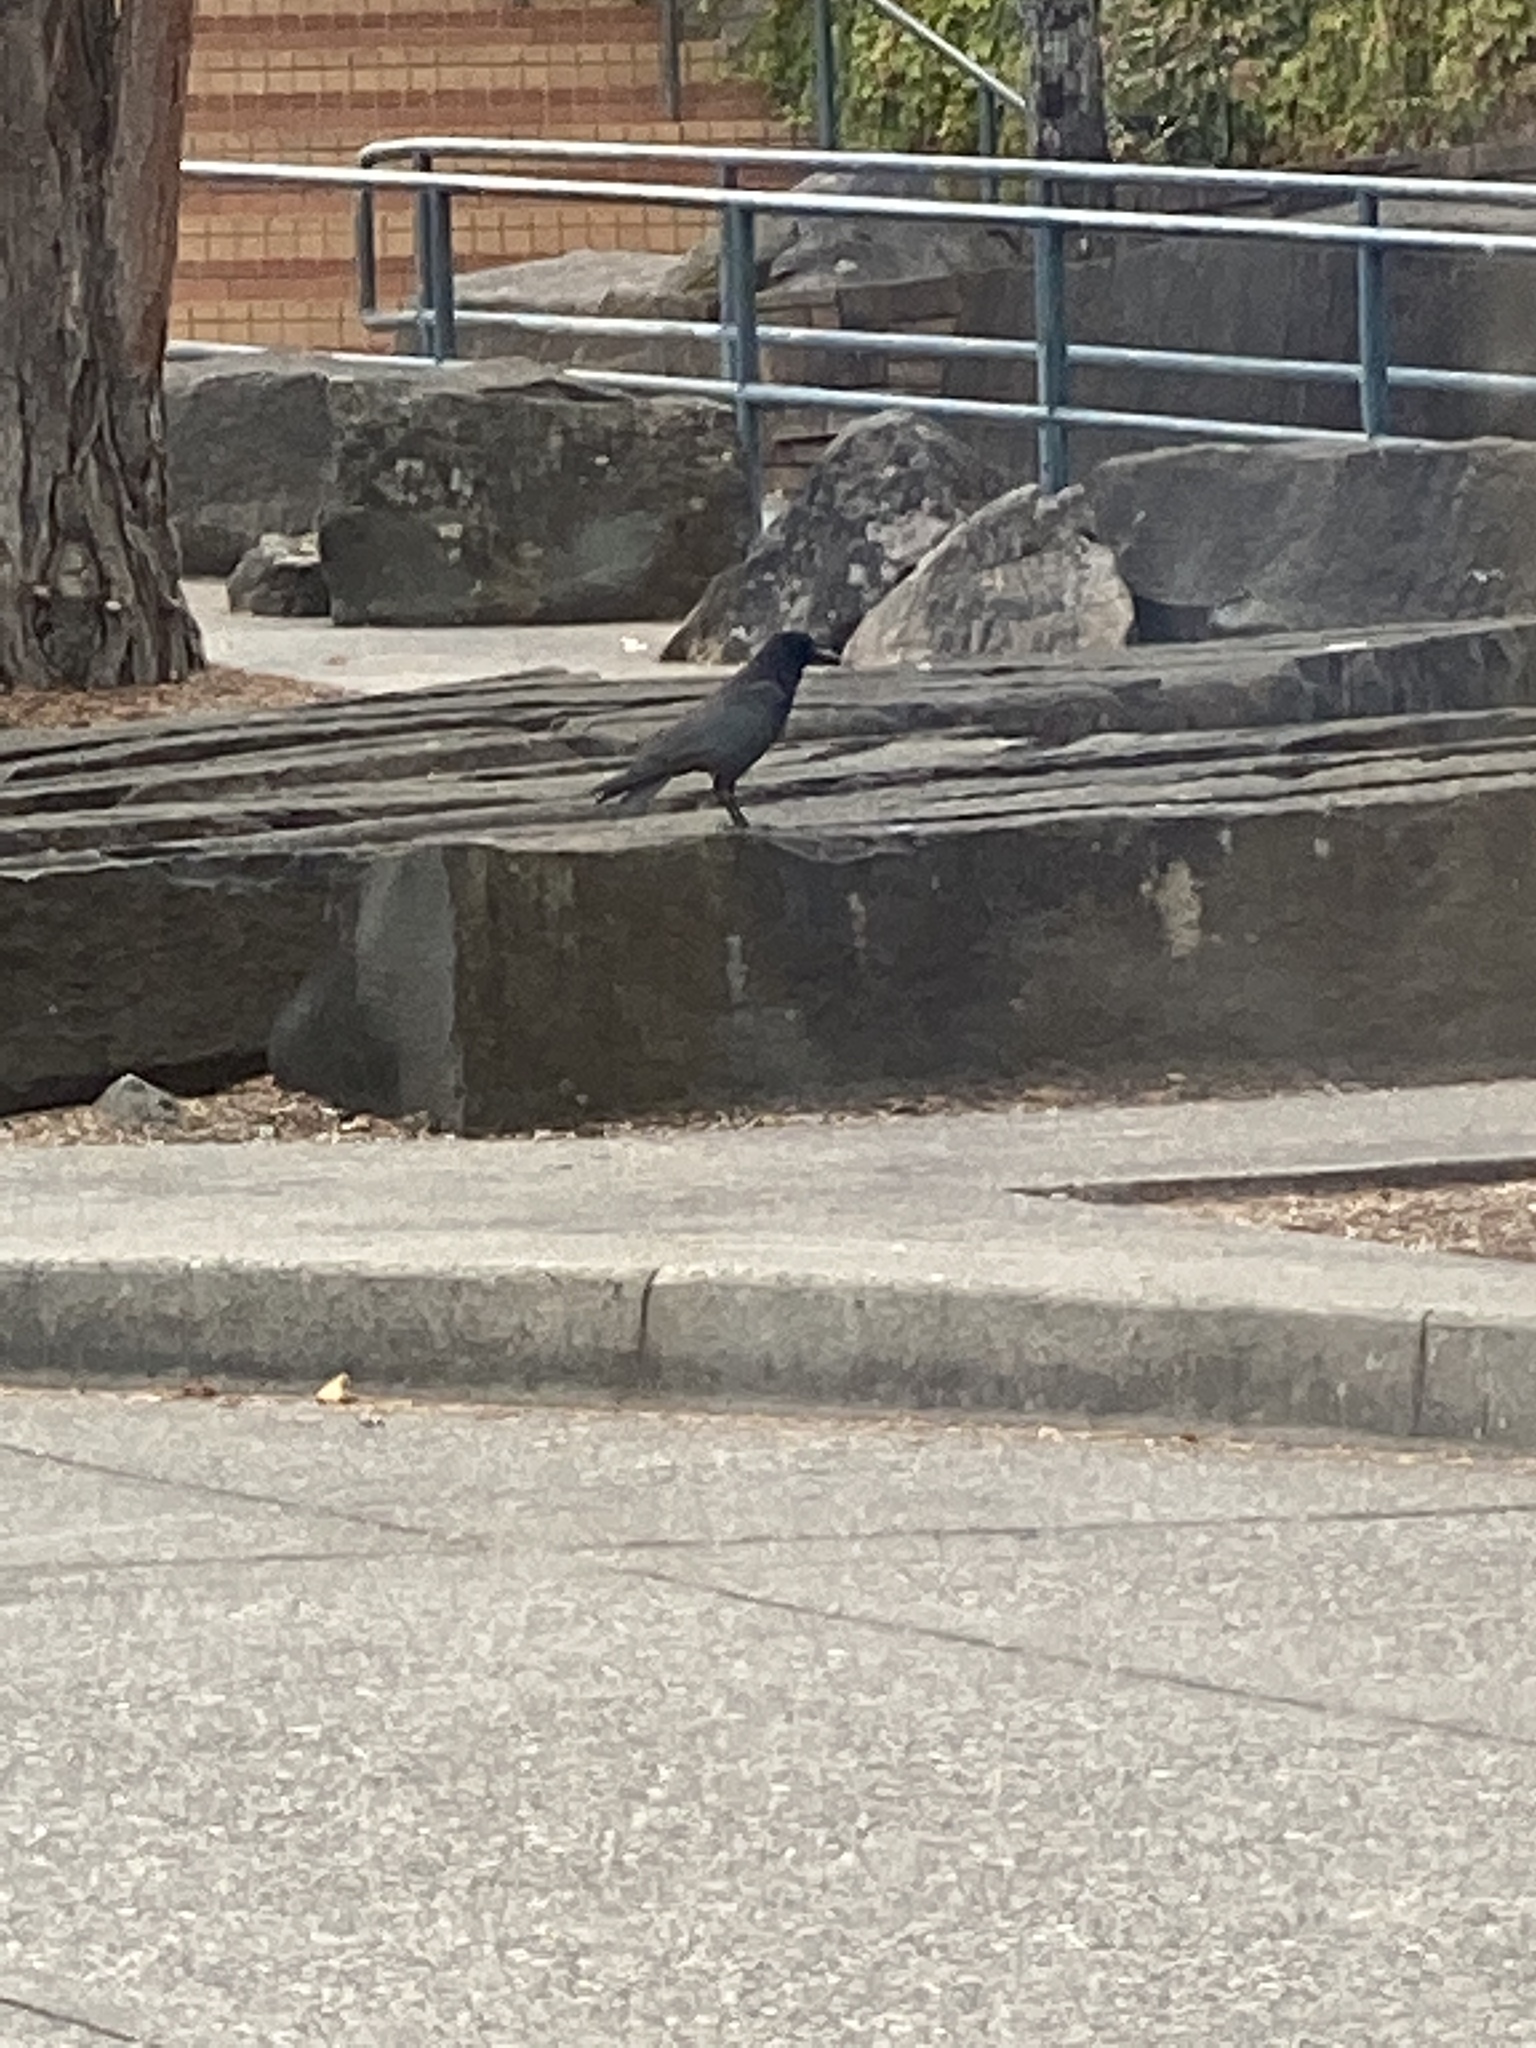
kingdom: Animalia
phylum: Chordata
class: Aves
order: Passeriformes
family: Corvidae
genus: Corvus
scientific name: Corvus brachyrhynchos
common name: American crow
